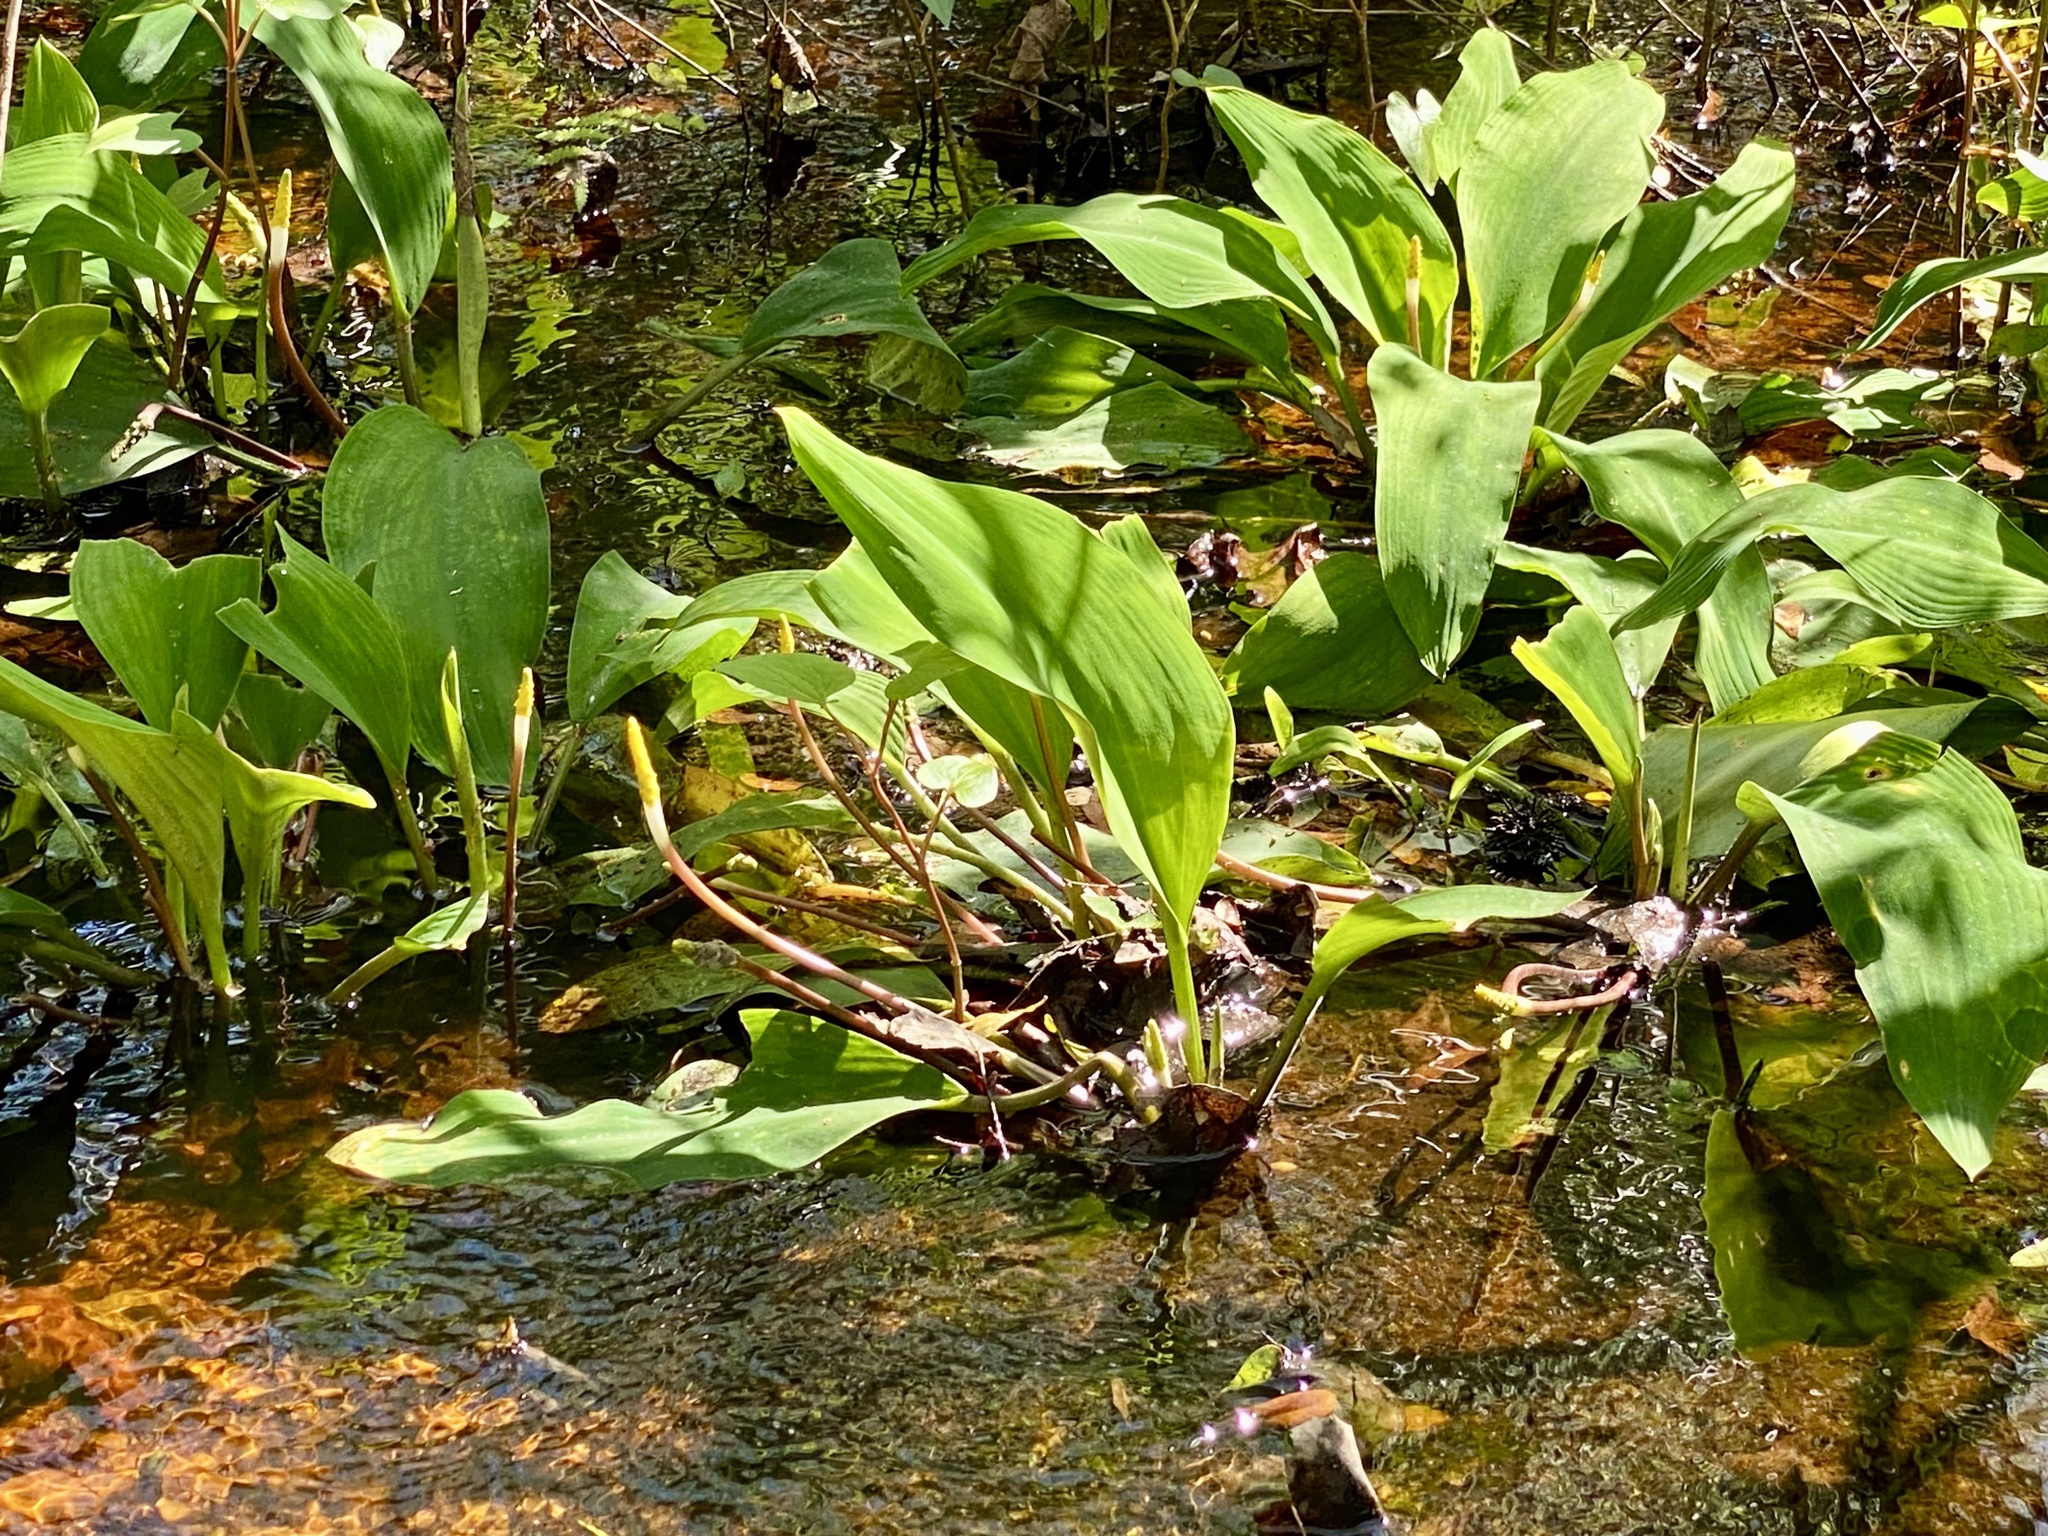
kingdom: Plantae
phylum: Tracheophyta
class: Liliopsida
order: Alismatales
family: Araceae
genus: Orontium
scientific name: Orontium aquaticum
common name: Golden-club
